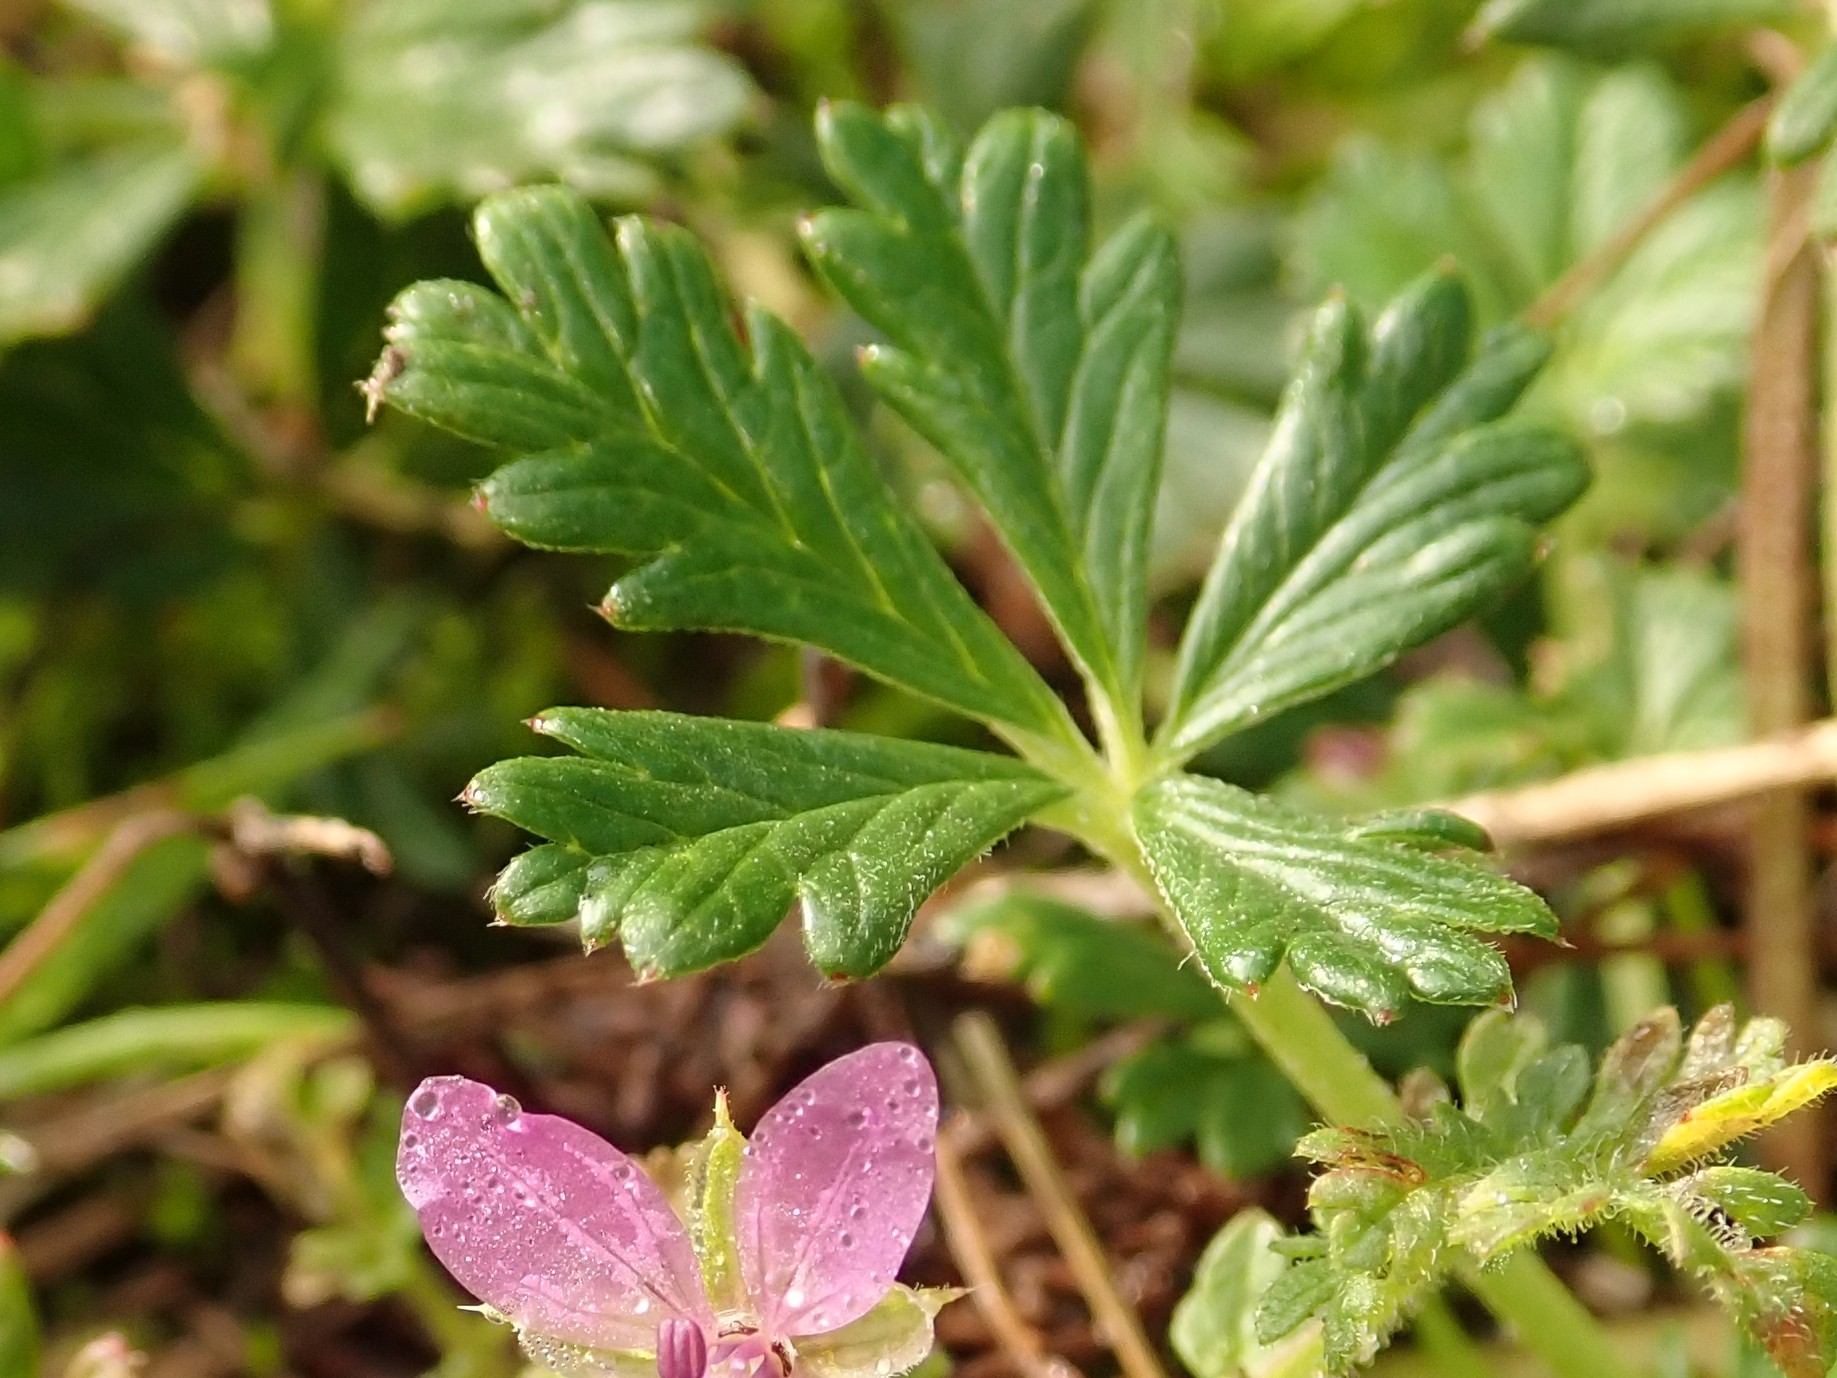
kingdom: Plantae
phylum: Tracheophyta
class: Magnoliopsida
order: Rosales
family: Rosaceae
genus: Potentilla
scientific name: Potentilla argentea
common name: Hoary cinquefoil
